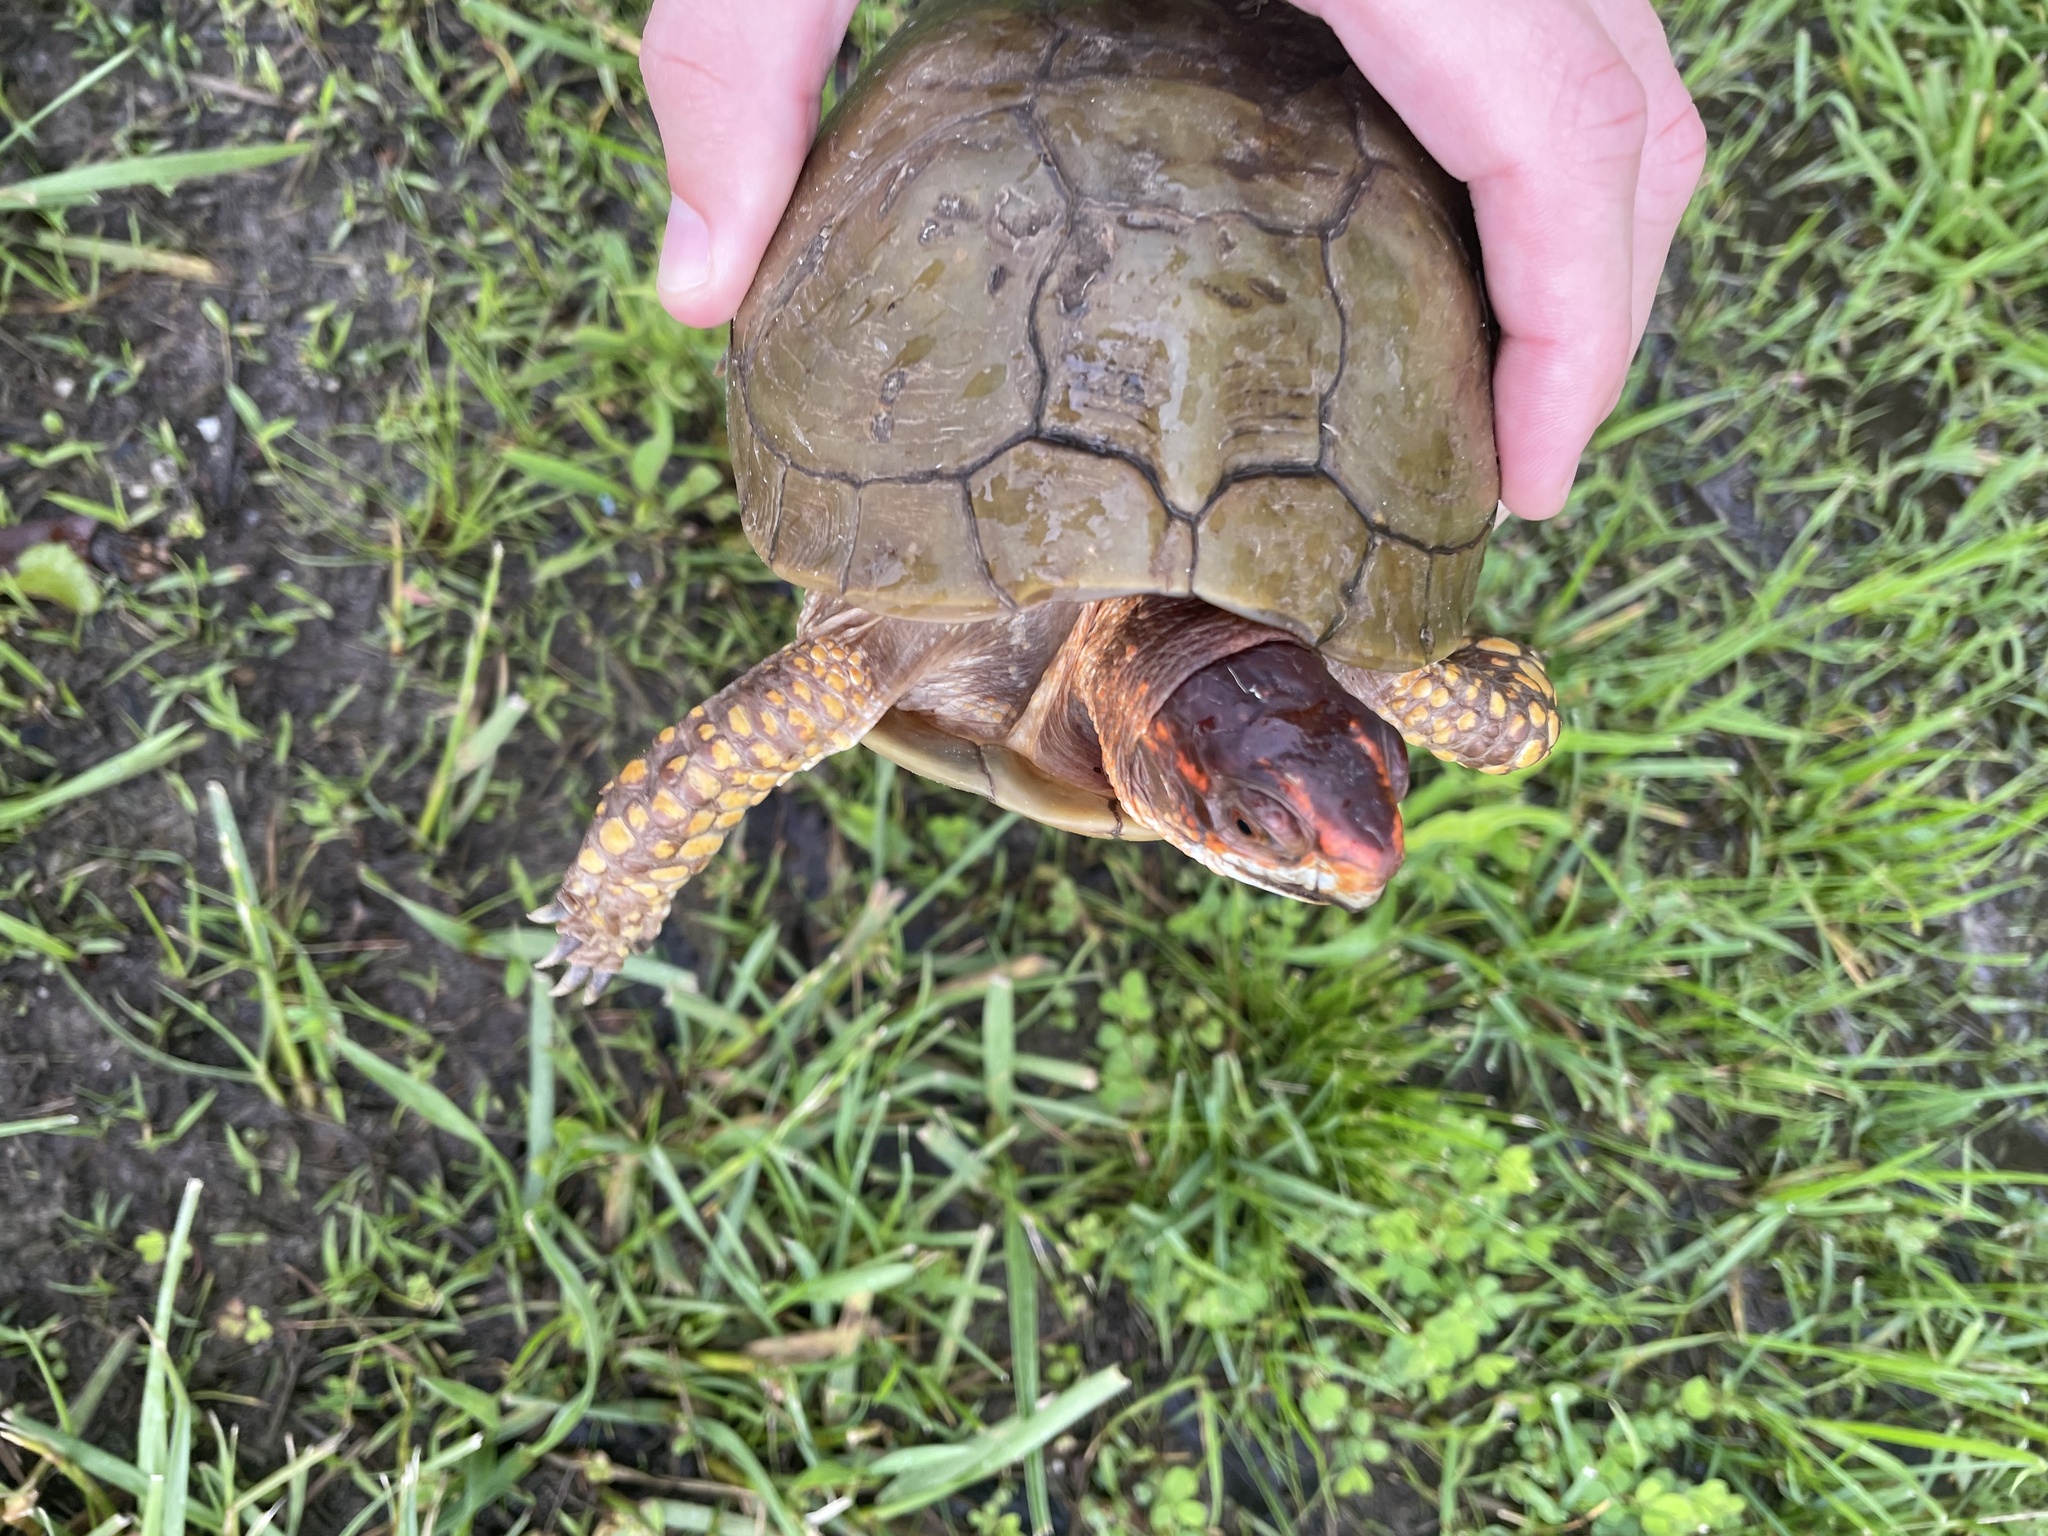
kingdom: Animalia
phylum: Chordata
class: Testudines
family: Emydidae
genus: Terrapene
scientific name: Terrapene carolina
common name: Common box turtle
